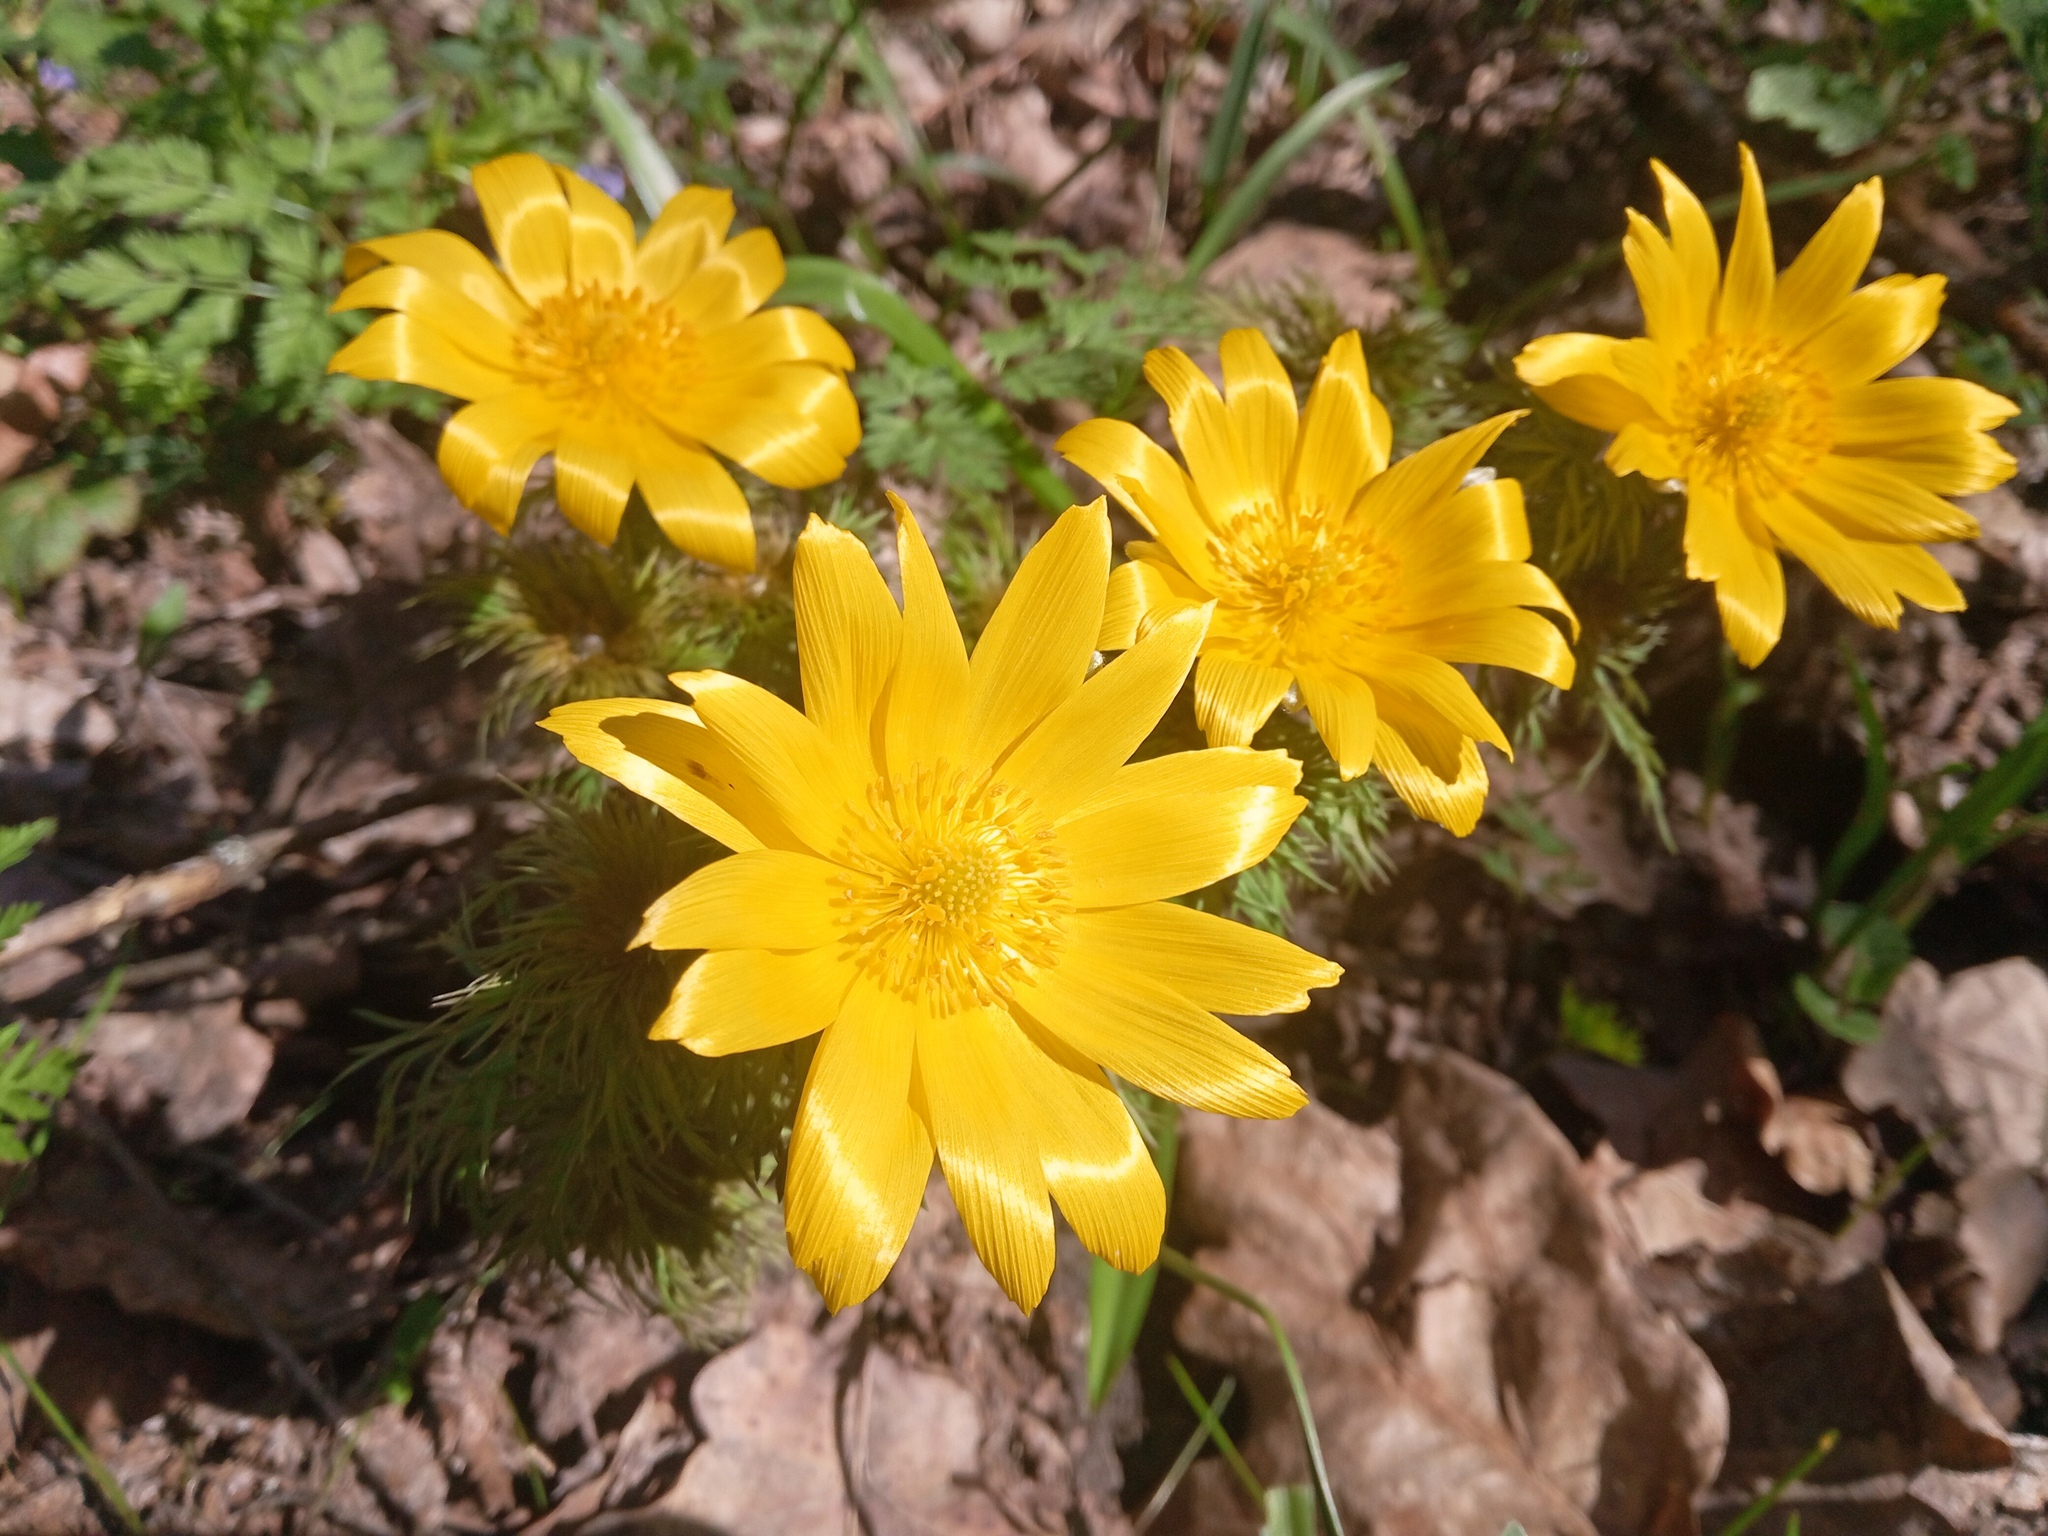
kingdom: Plantae
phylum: Tracheophyta
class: Magnoliopsida
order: Ranunculales
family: Ranunculaceae
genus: Adonis
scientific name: Adonis vernalis
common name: Yellow pheasants-eye
